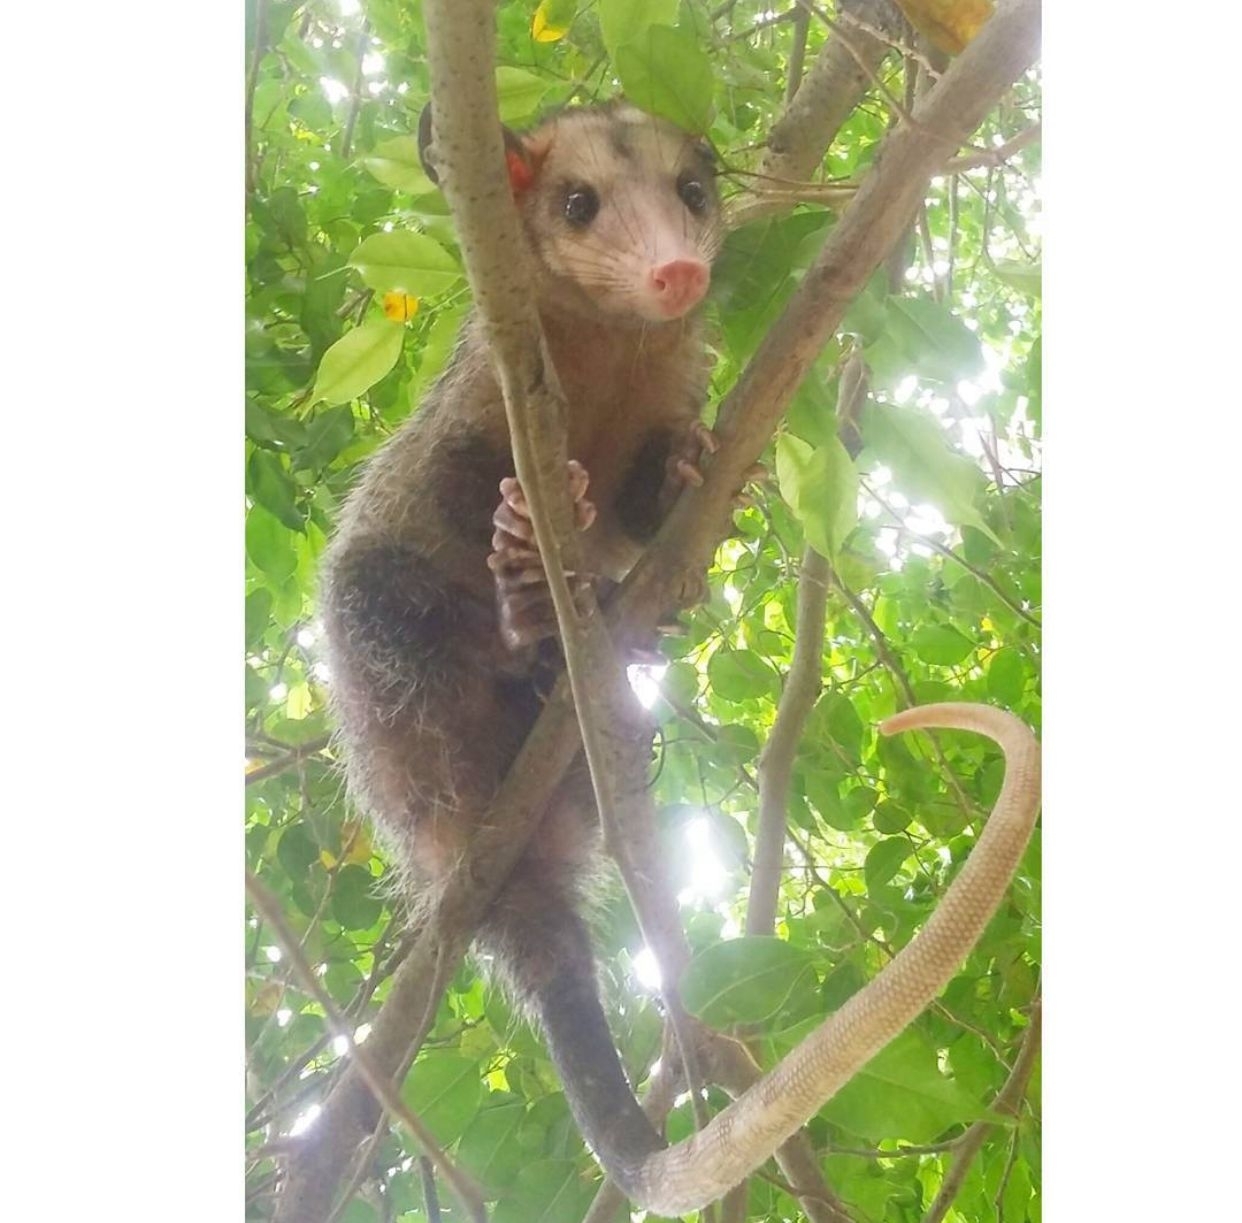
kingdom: Animalia
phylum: Chordata
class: Mammalia
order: Didelphimorphia
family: Didelphidae
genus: Didelphis
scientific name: Didelphis marsupialis
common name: Common opossum
